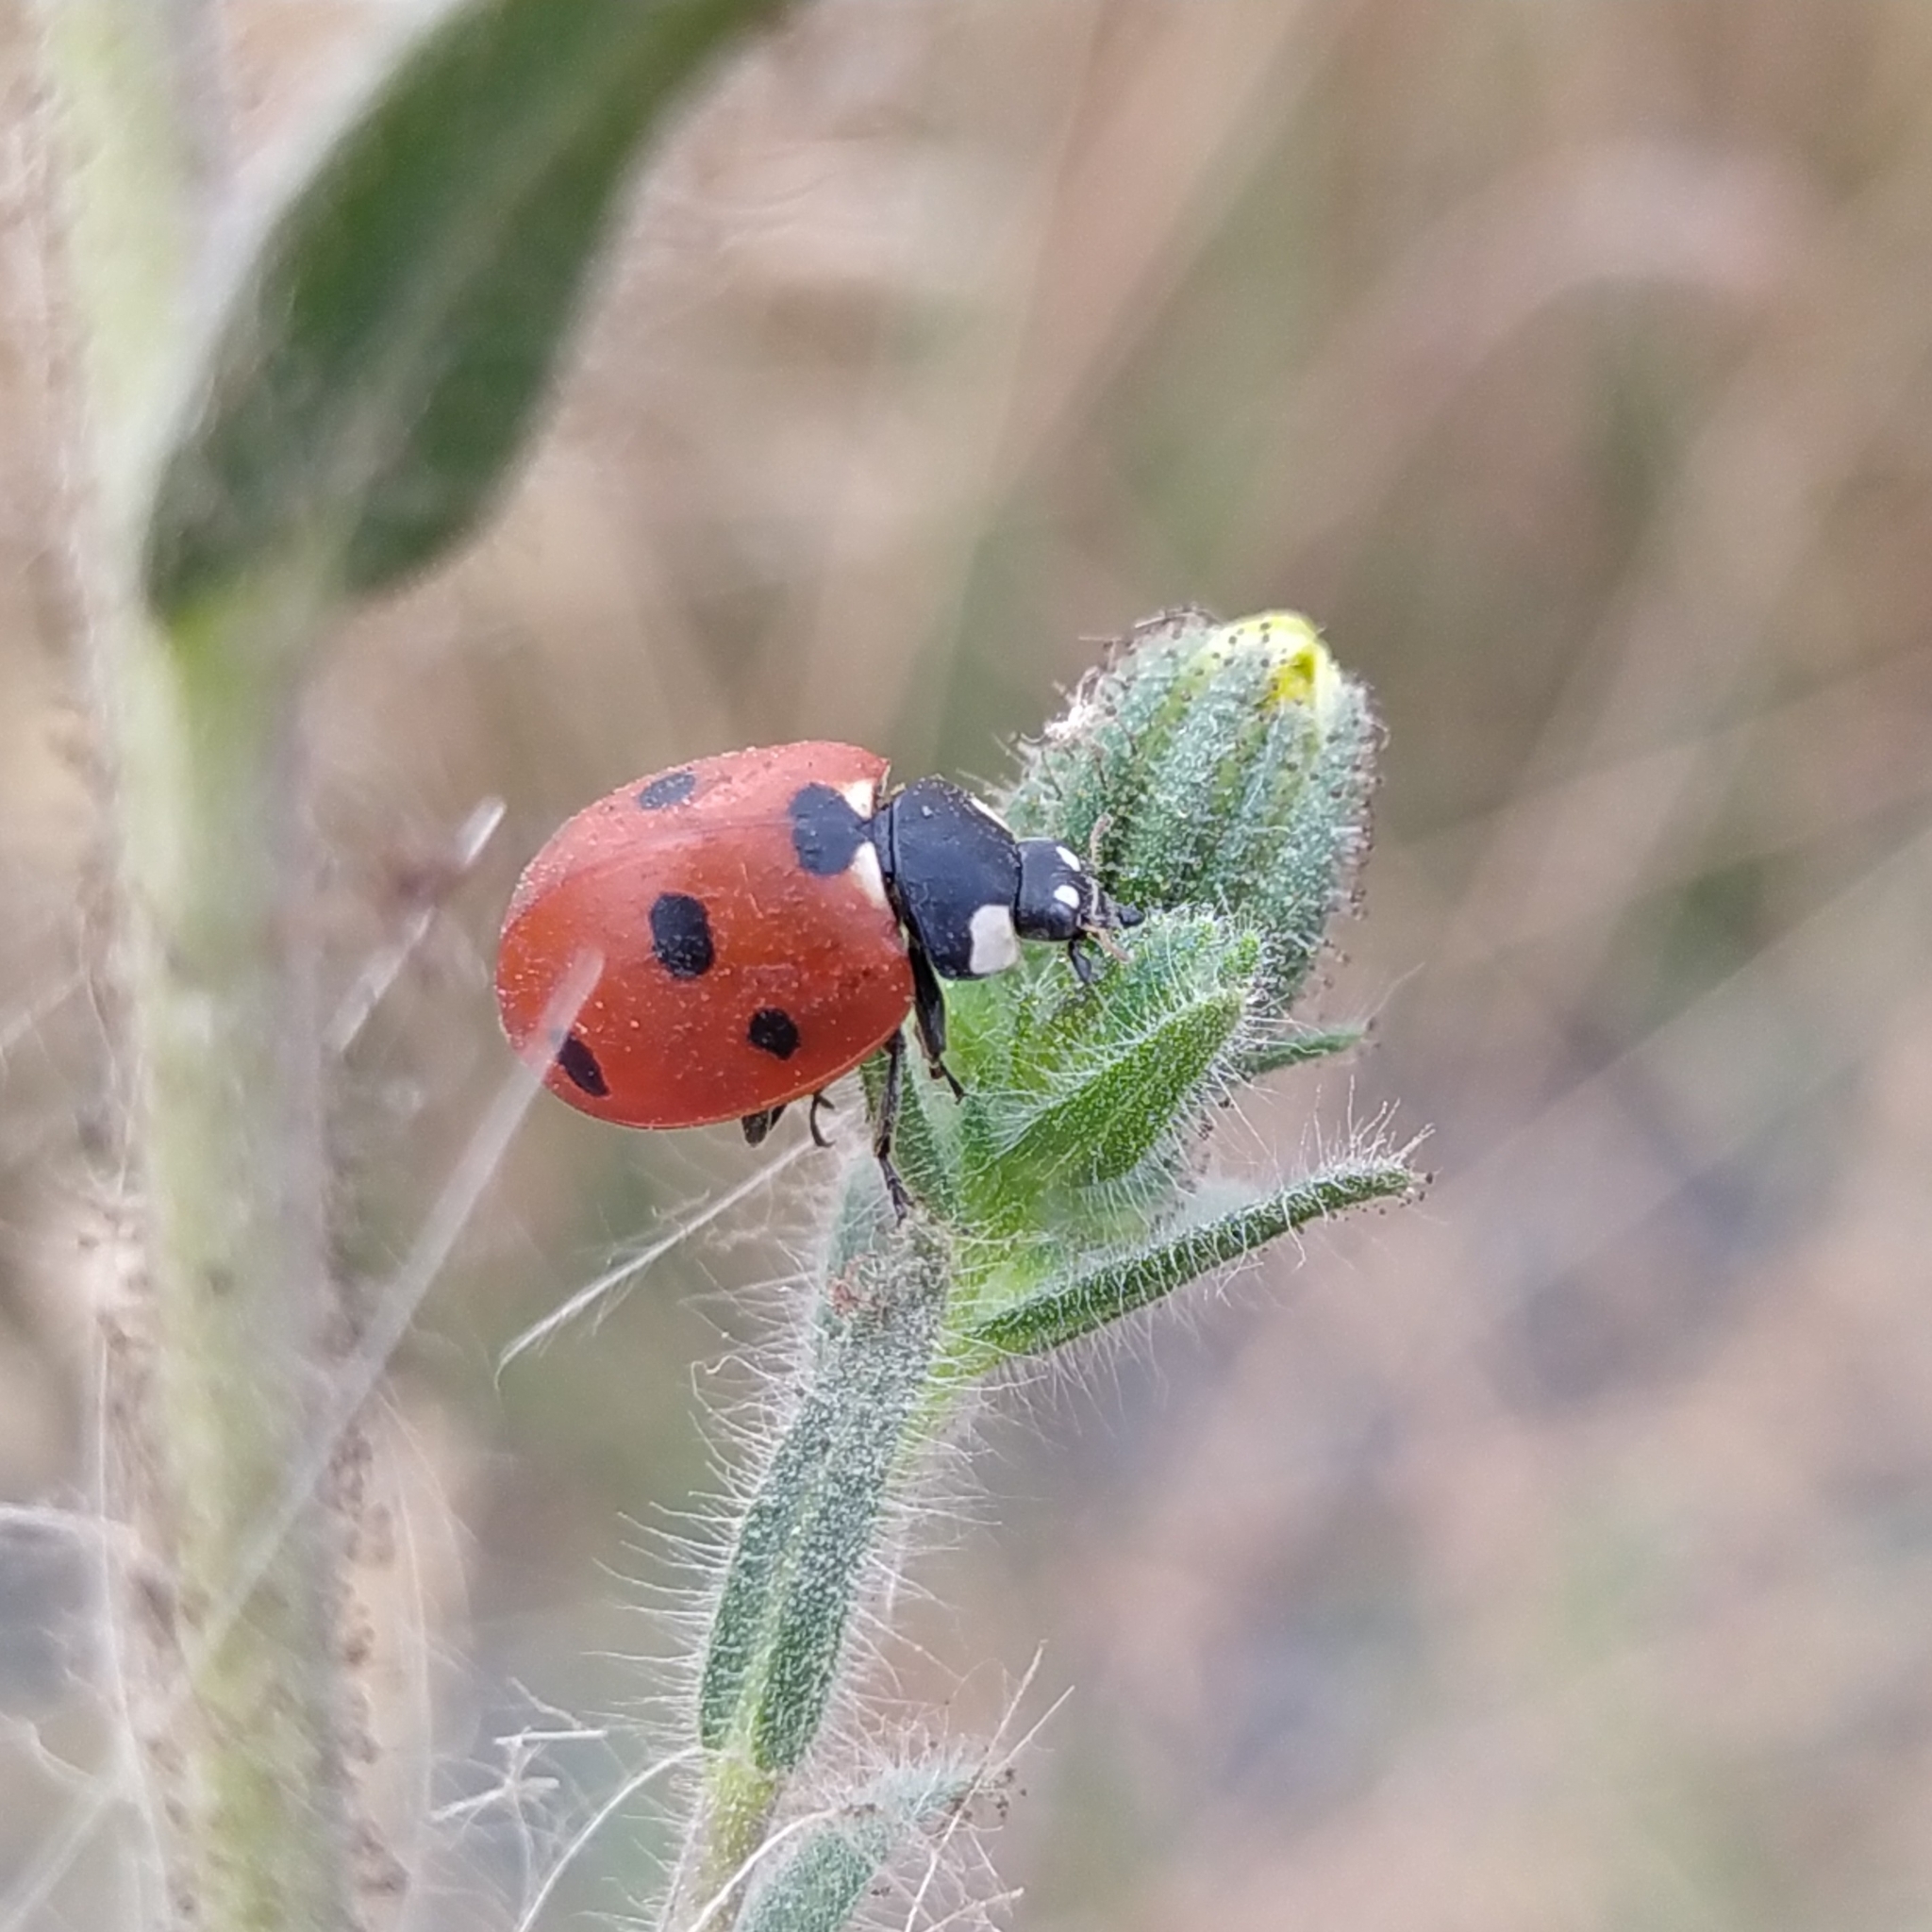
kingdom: Animalia
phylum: Arthropoda
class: Insecta
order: Coleoptera
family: Coccinellidae
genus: Coccinella
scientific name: Coccinella septempunctata
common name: Sevenspotted lady beetle
